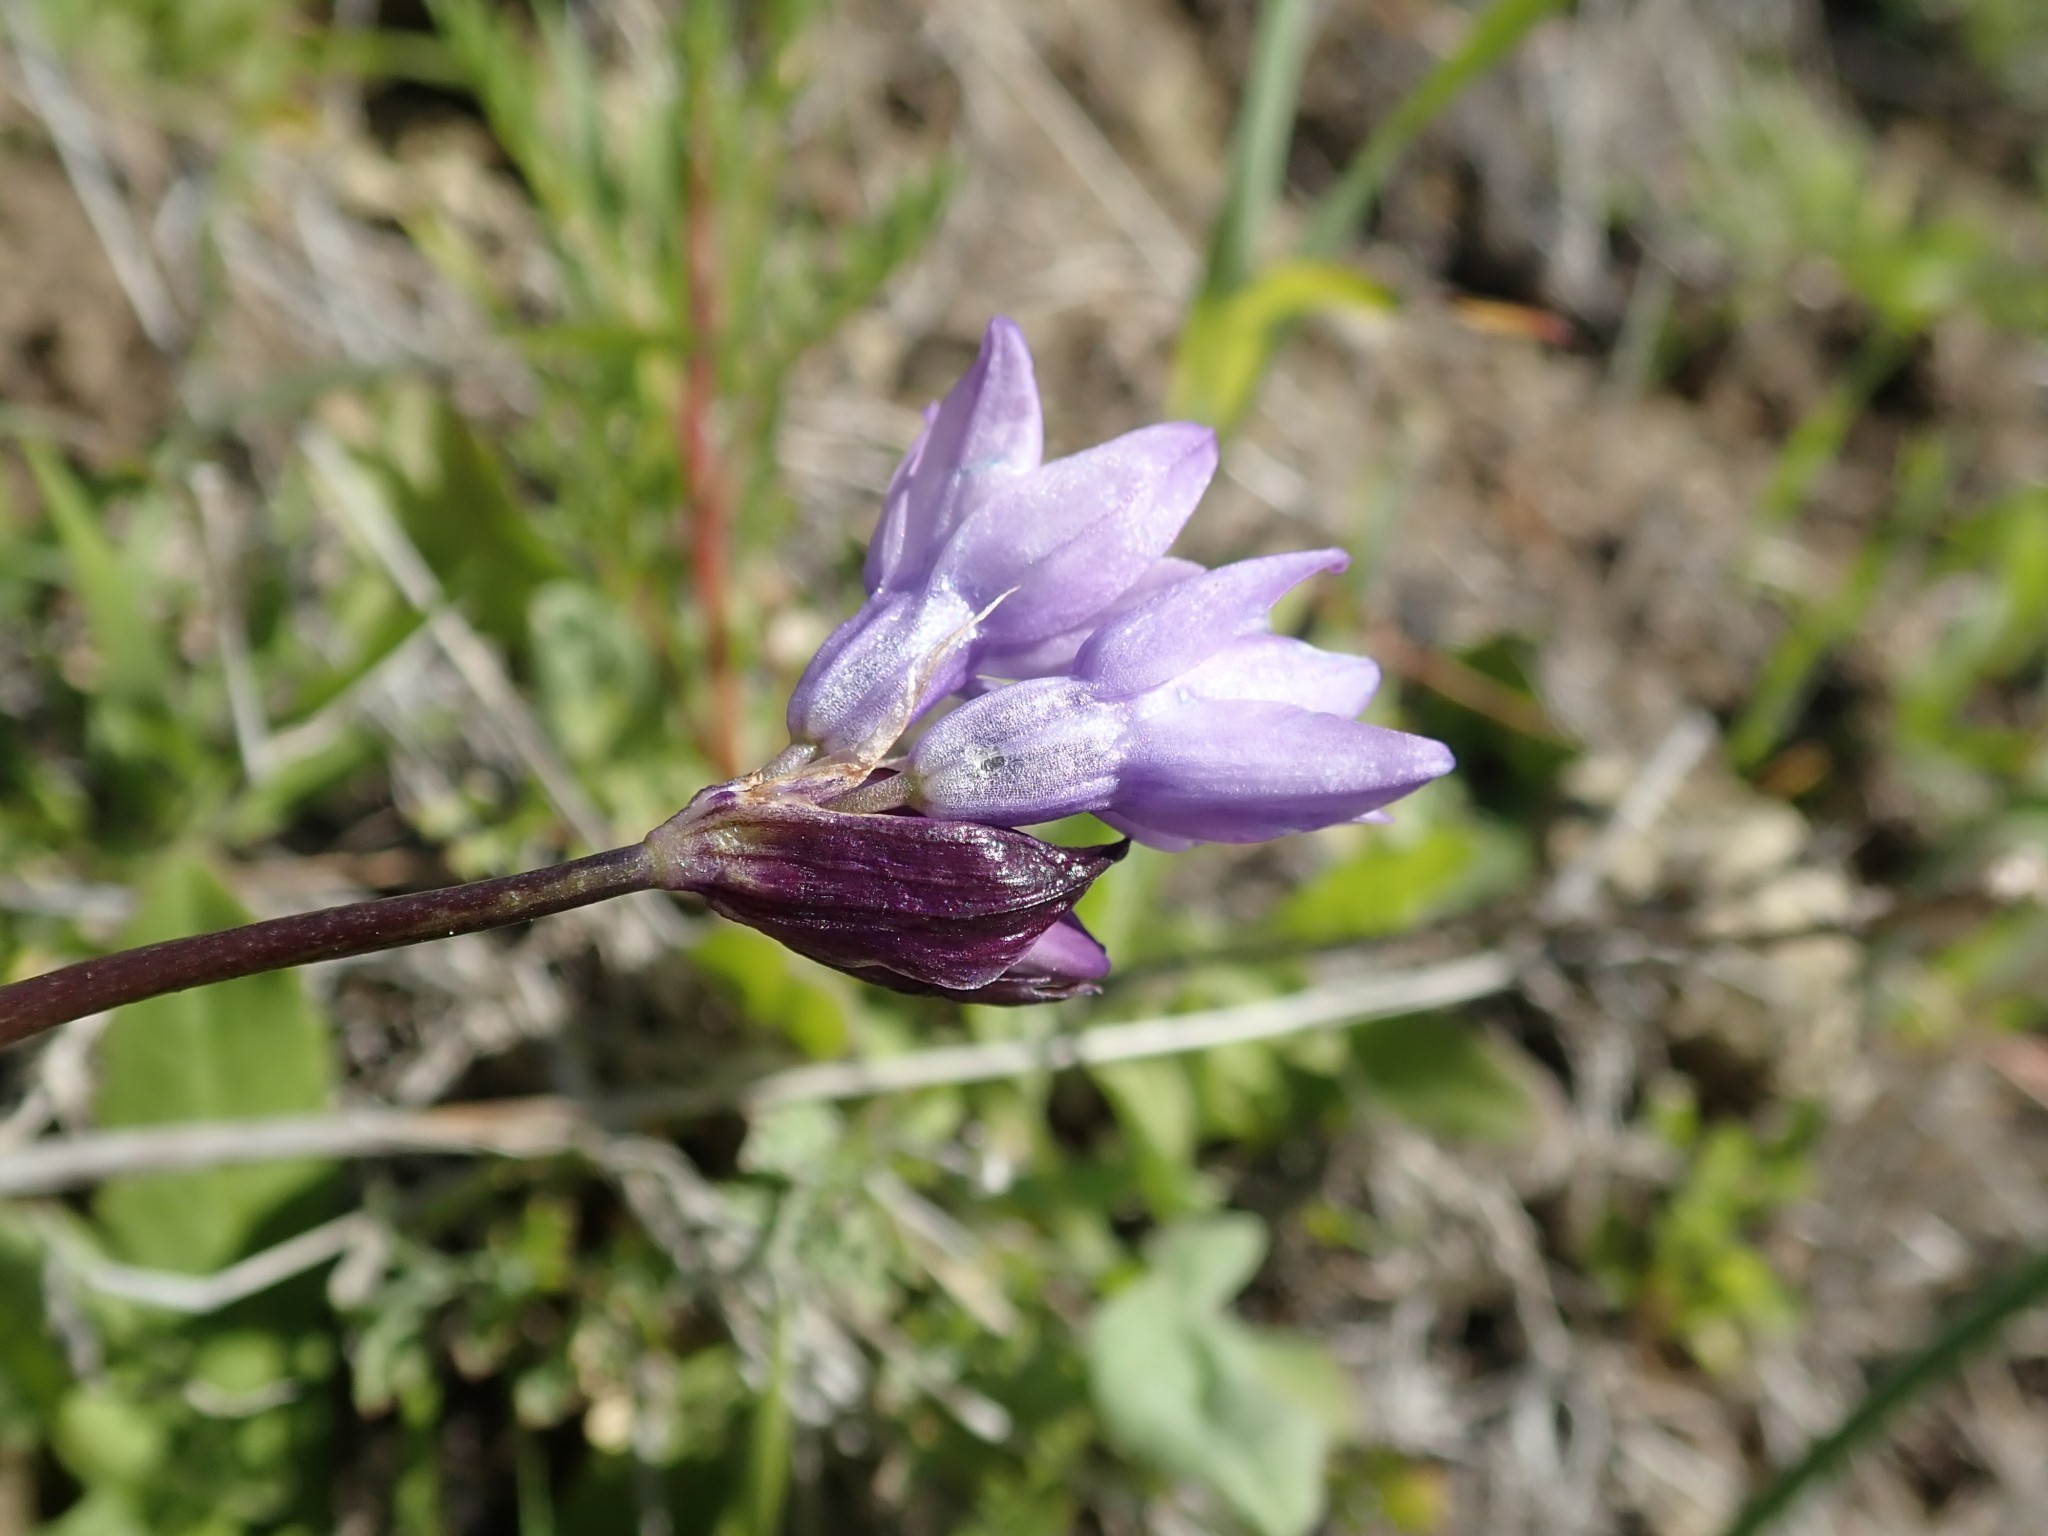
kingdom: Plantae
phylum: Tracheophyta
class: Liliopsida
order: Asparagales
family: Asparagaceae
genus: Dipterostemon
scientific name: Dipterostemon capitatus
